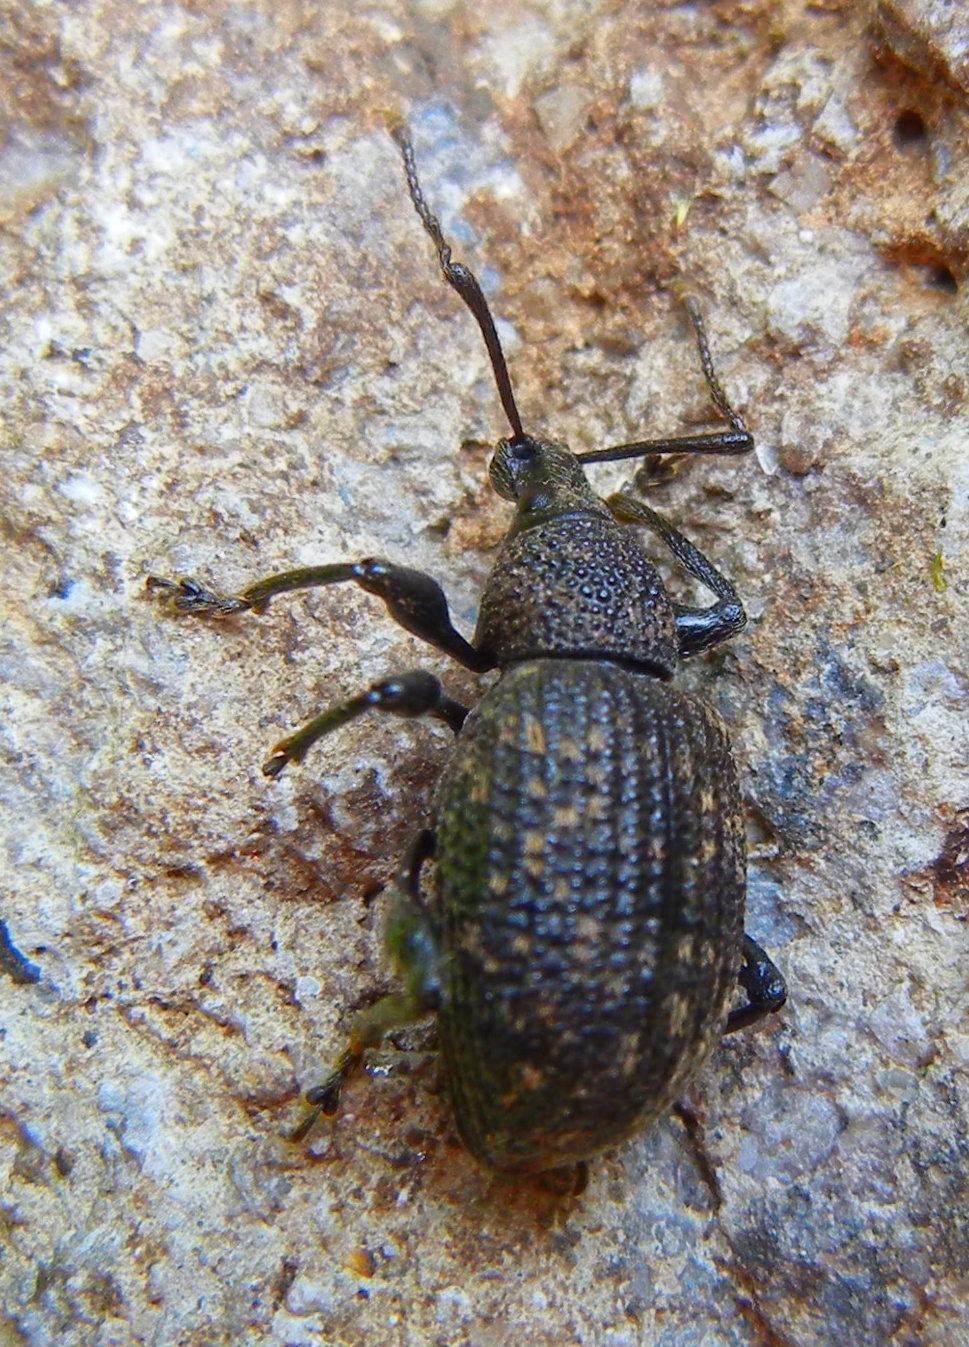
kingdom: Animalia
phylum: Arthropoda
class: Insecta
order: Coleoptera
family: Curculionidae
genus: Otiorhynchus
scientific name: Otiorhynchus sulcatus
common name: Black vine weevil
